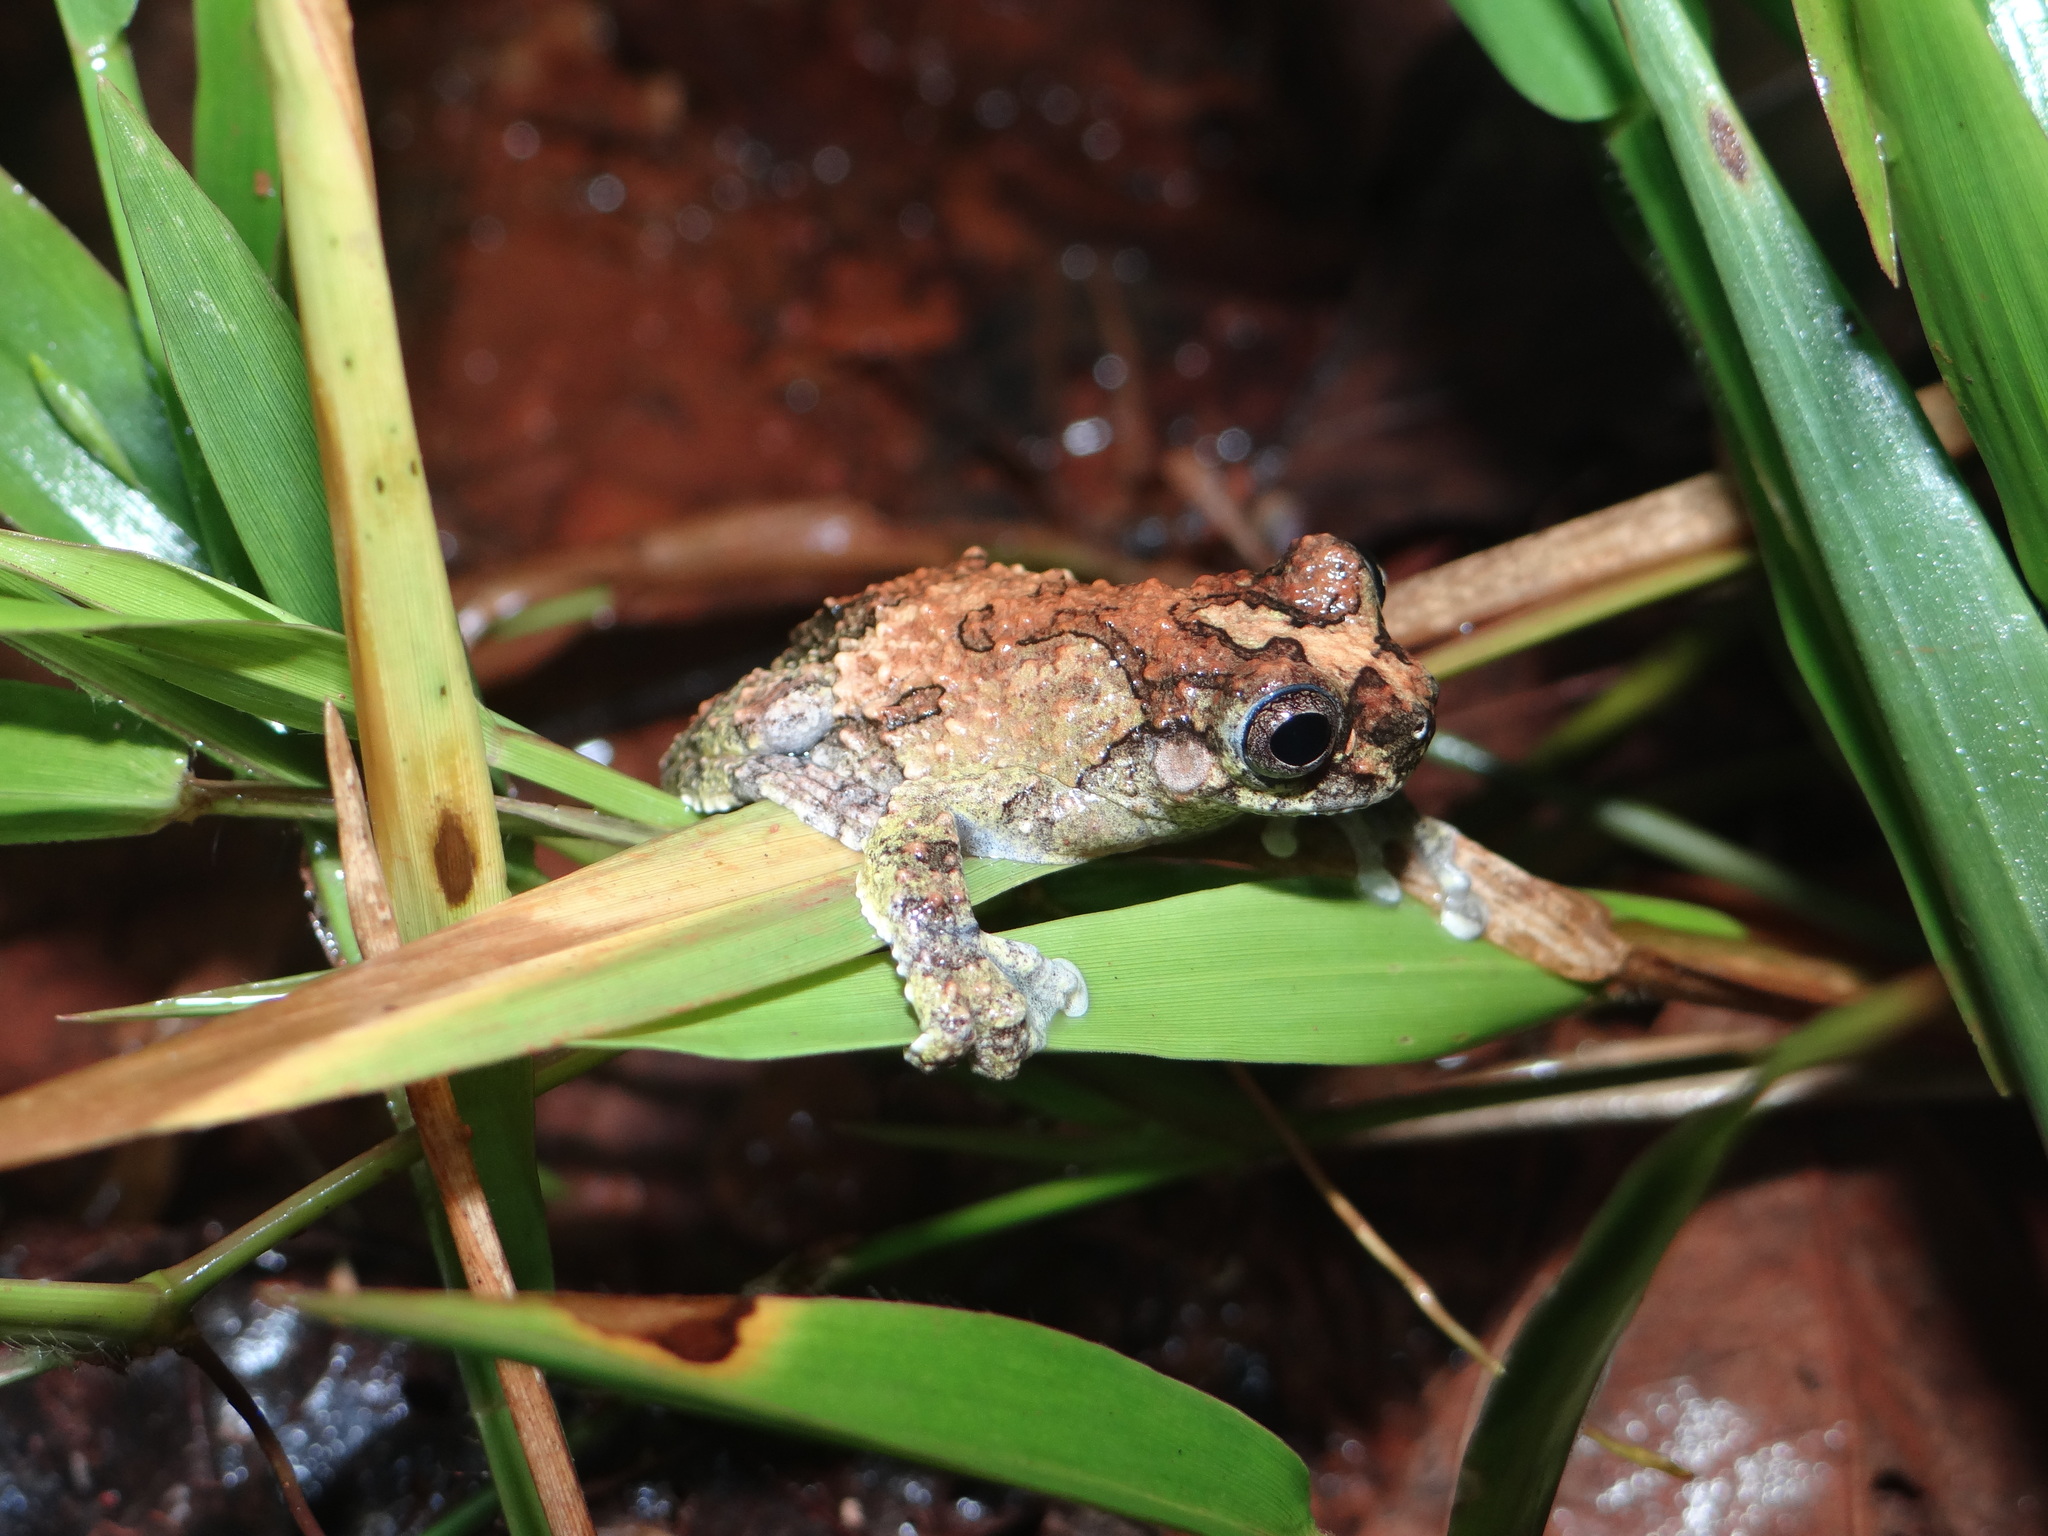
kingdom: Animalia
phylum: Chordata
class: Amphibia
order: Anura
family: Hylidae
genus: Dendropsophus
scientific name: Dendropsophus acreanus
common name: Acre treefrog
